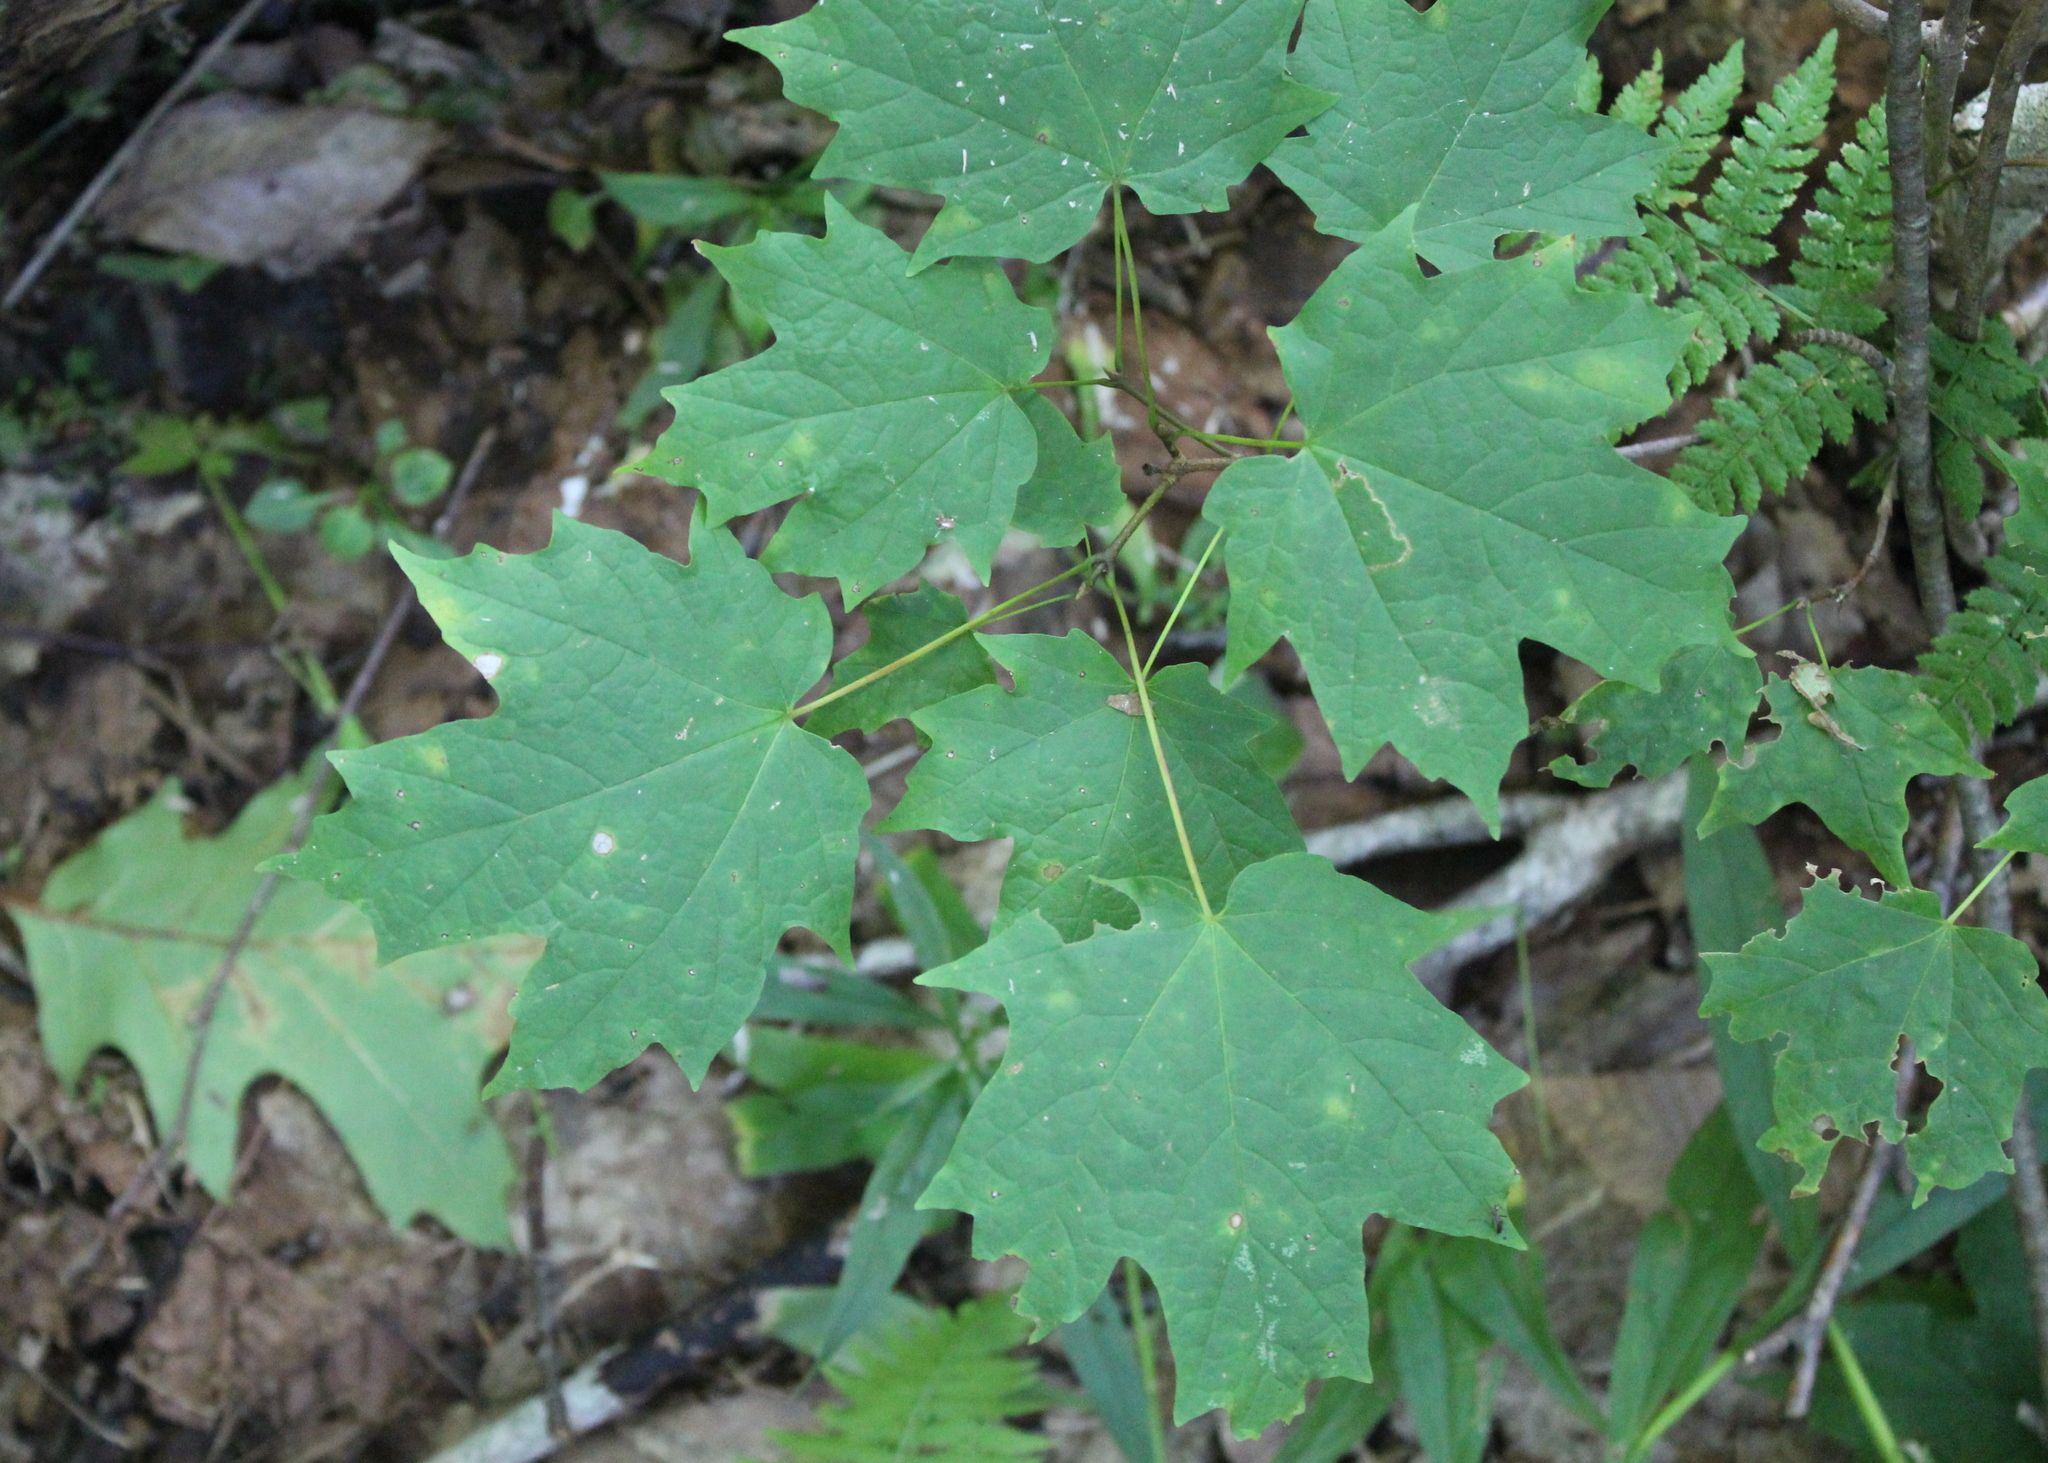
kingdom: Plantae
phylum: Tracheophyta
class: Magnoliopsida
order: Sapindales
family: Sapindaceae
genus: Acer
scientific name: Acer saccharum
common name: Sugar maple
